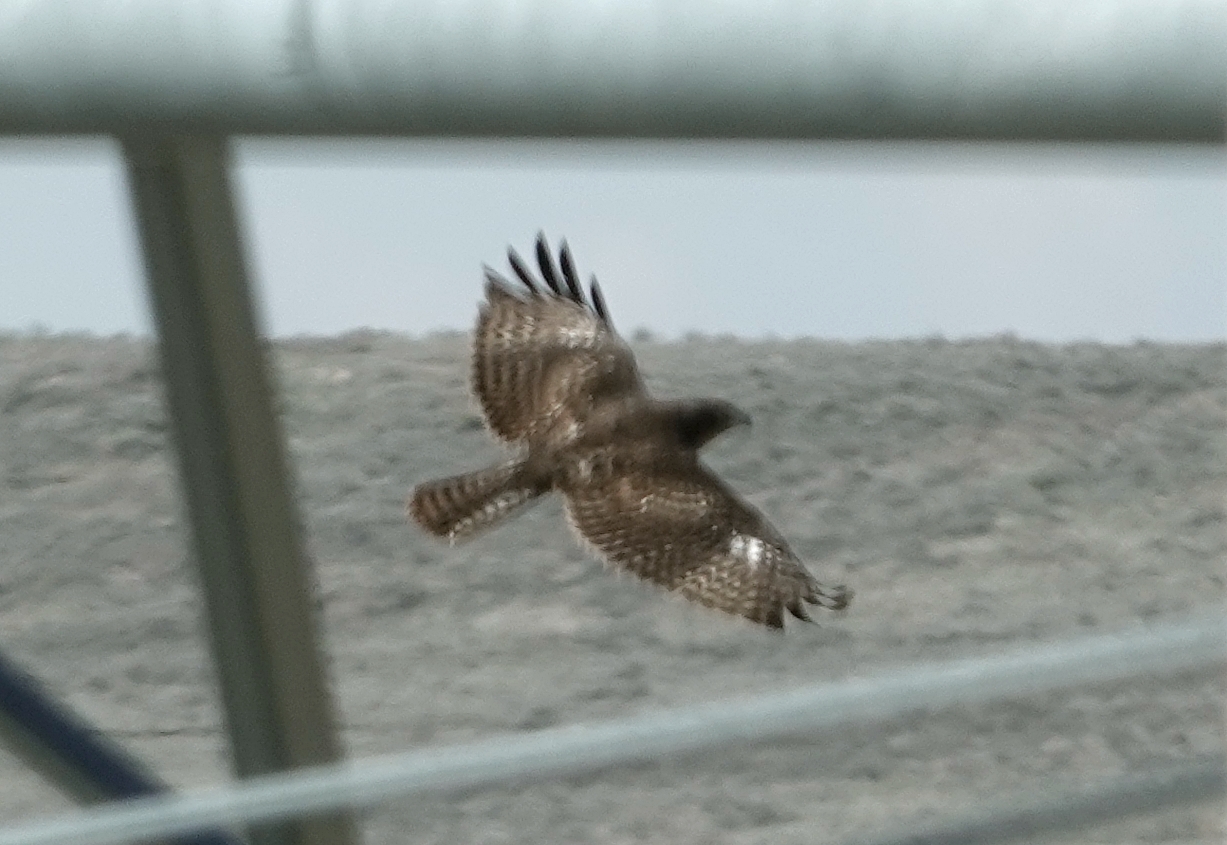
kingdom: Animalia
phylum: Chordata
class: Aves
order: Accipitriformes
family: Accipitridae
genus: Buteo
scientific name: Buteo jamaicensis
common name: Red-tailed hawk
